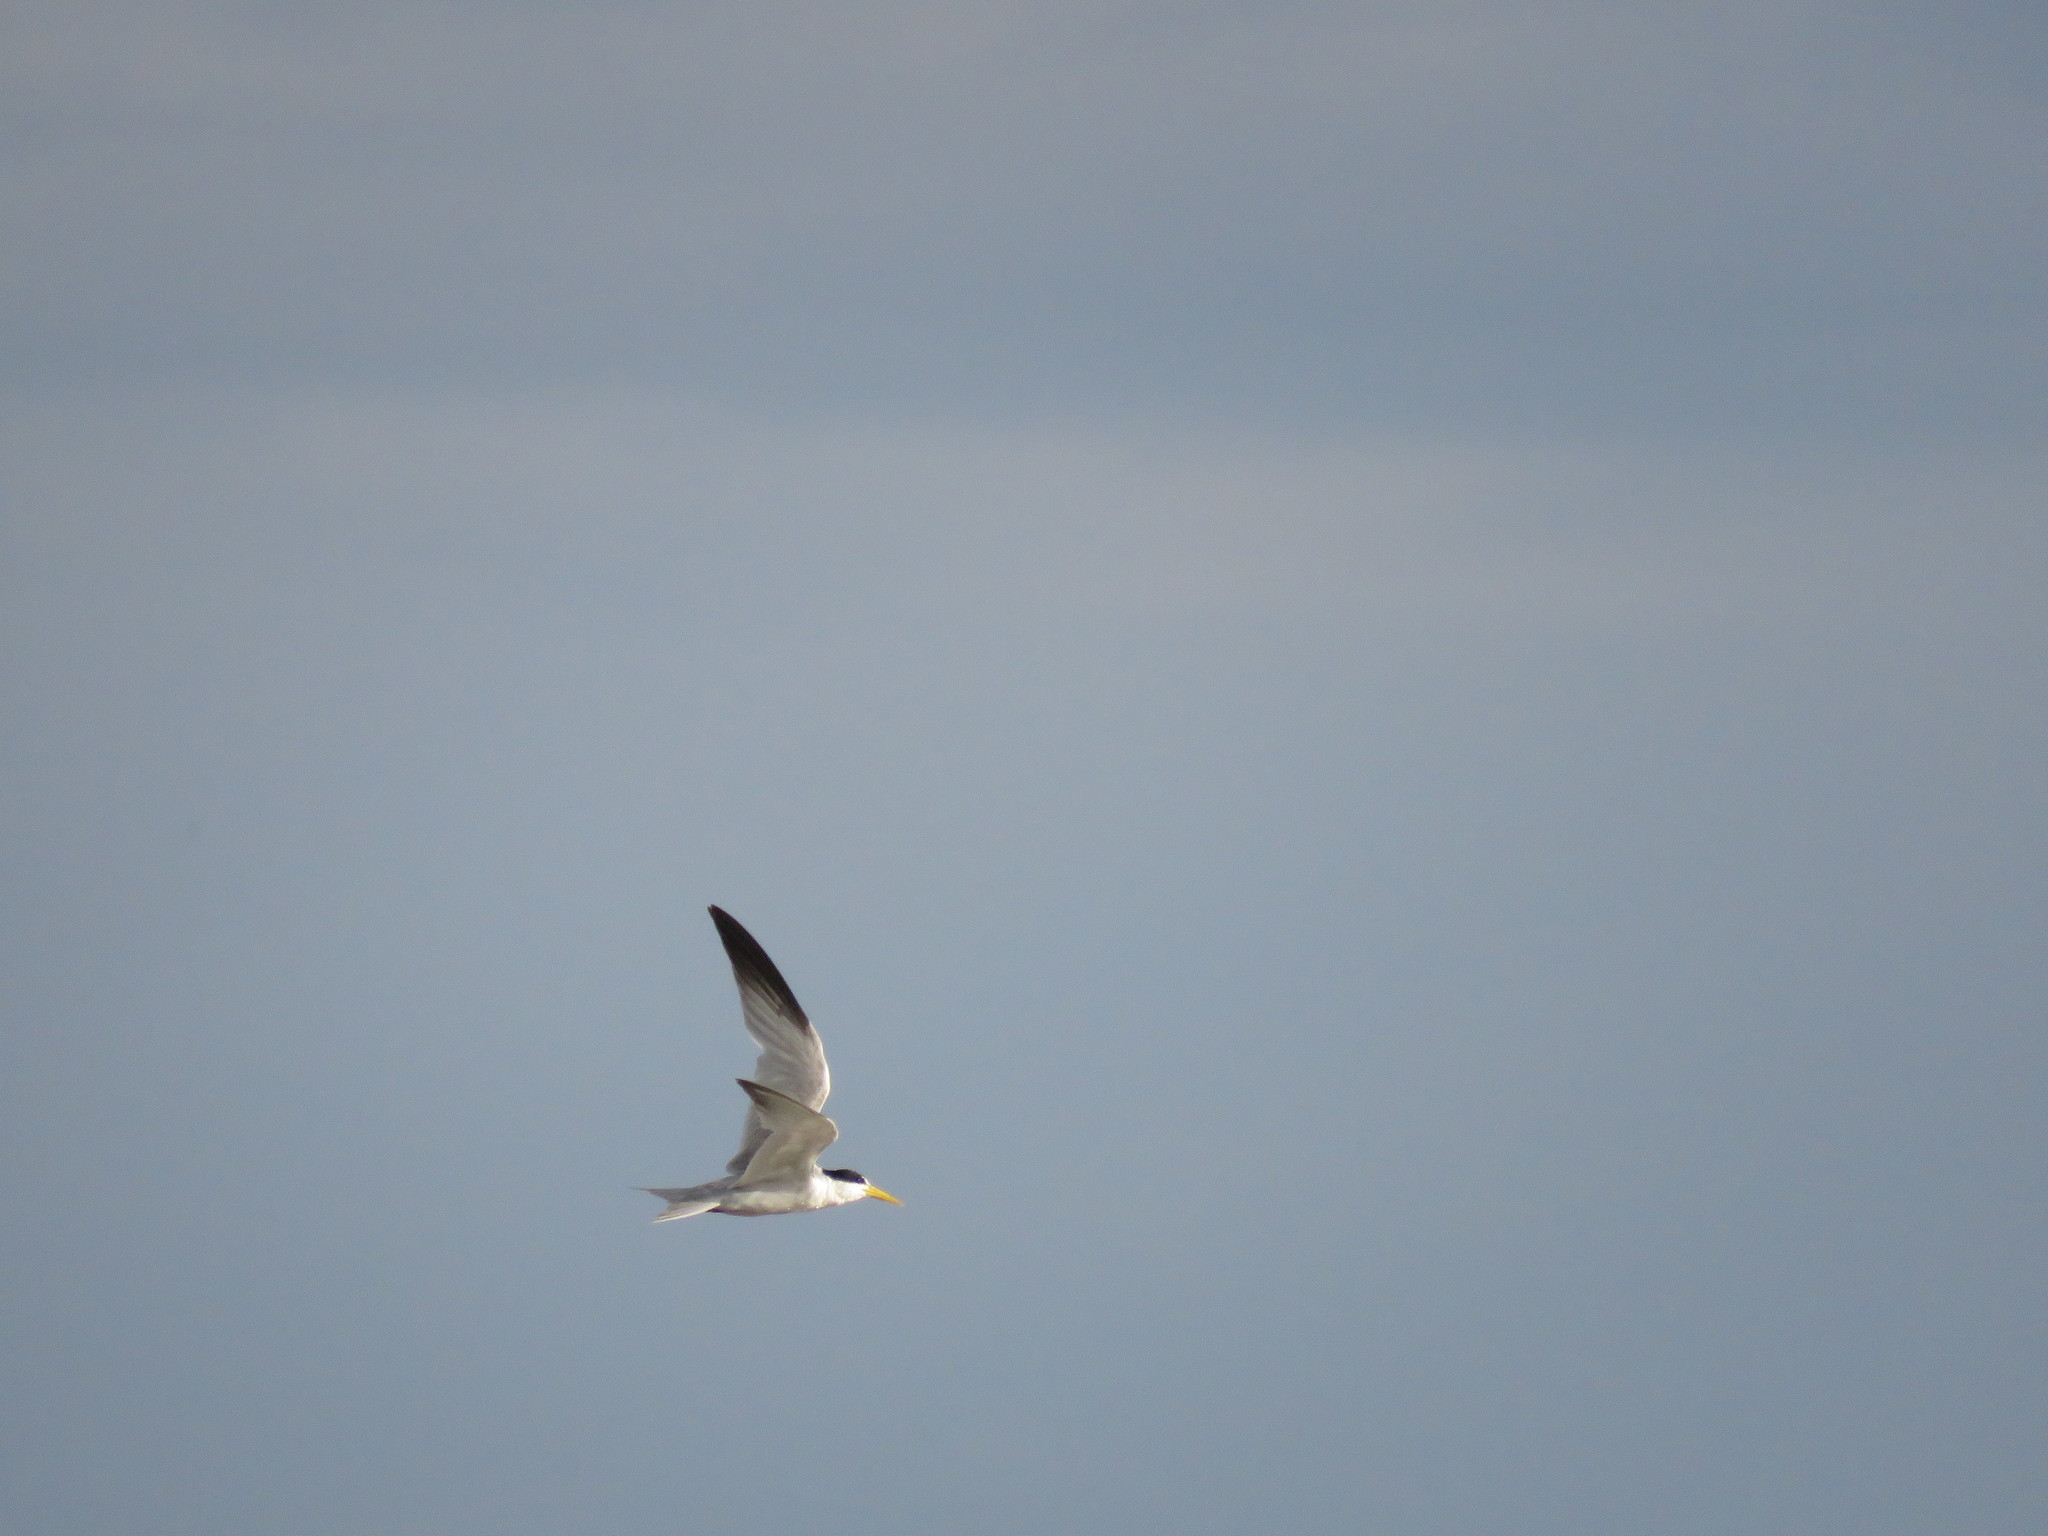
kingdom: Animalia
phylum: Chordata
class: Aves
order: Charadriiformes
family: Laridae
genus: Sternula
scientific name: Sternula superciliaris
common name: Yellow-billed tern
